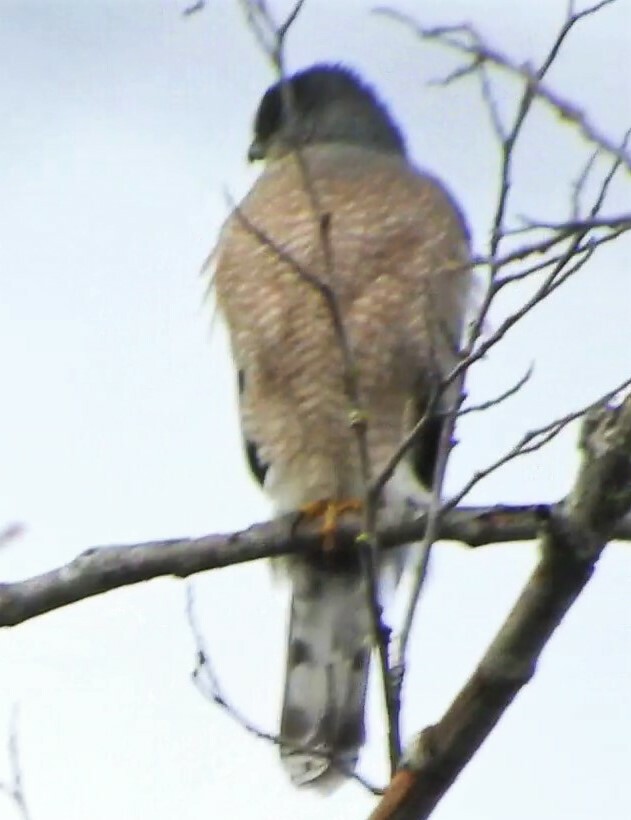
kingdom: Animalia
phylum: Chordata
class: Aves
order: Accipitriformes
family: Accipitridae
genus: Accipiter
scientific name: Accipiter cooperii
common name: Cooper's hawk
